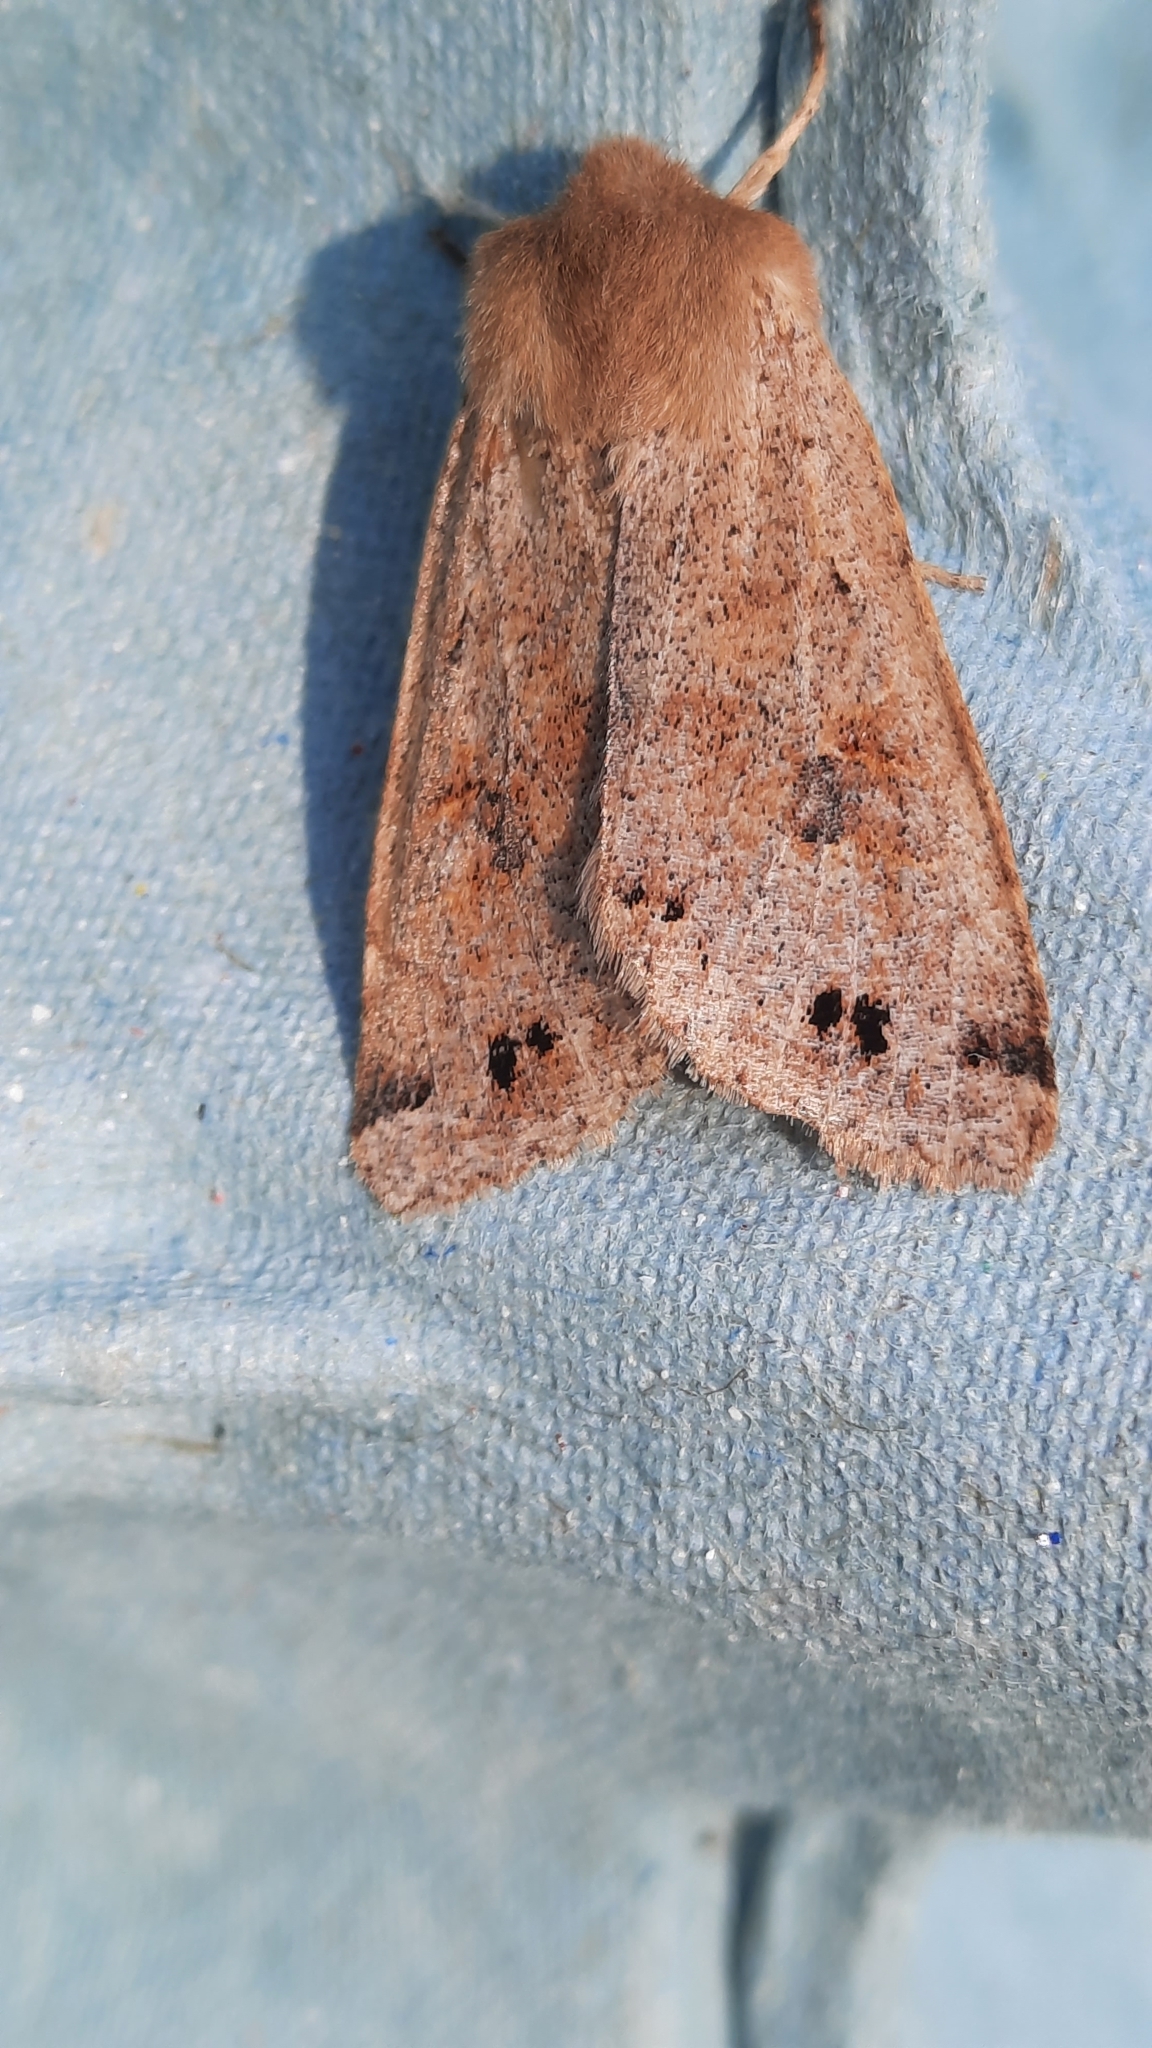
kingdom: Animalia
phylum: Arthropoda
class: Insecta
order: Lepidoptera
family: Noctuidae
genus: Anorthoa
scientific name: Anorthoa munda
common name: Twin-spotted quaker
